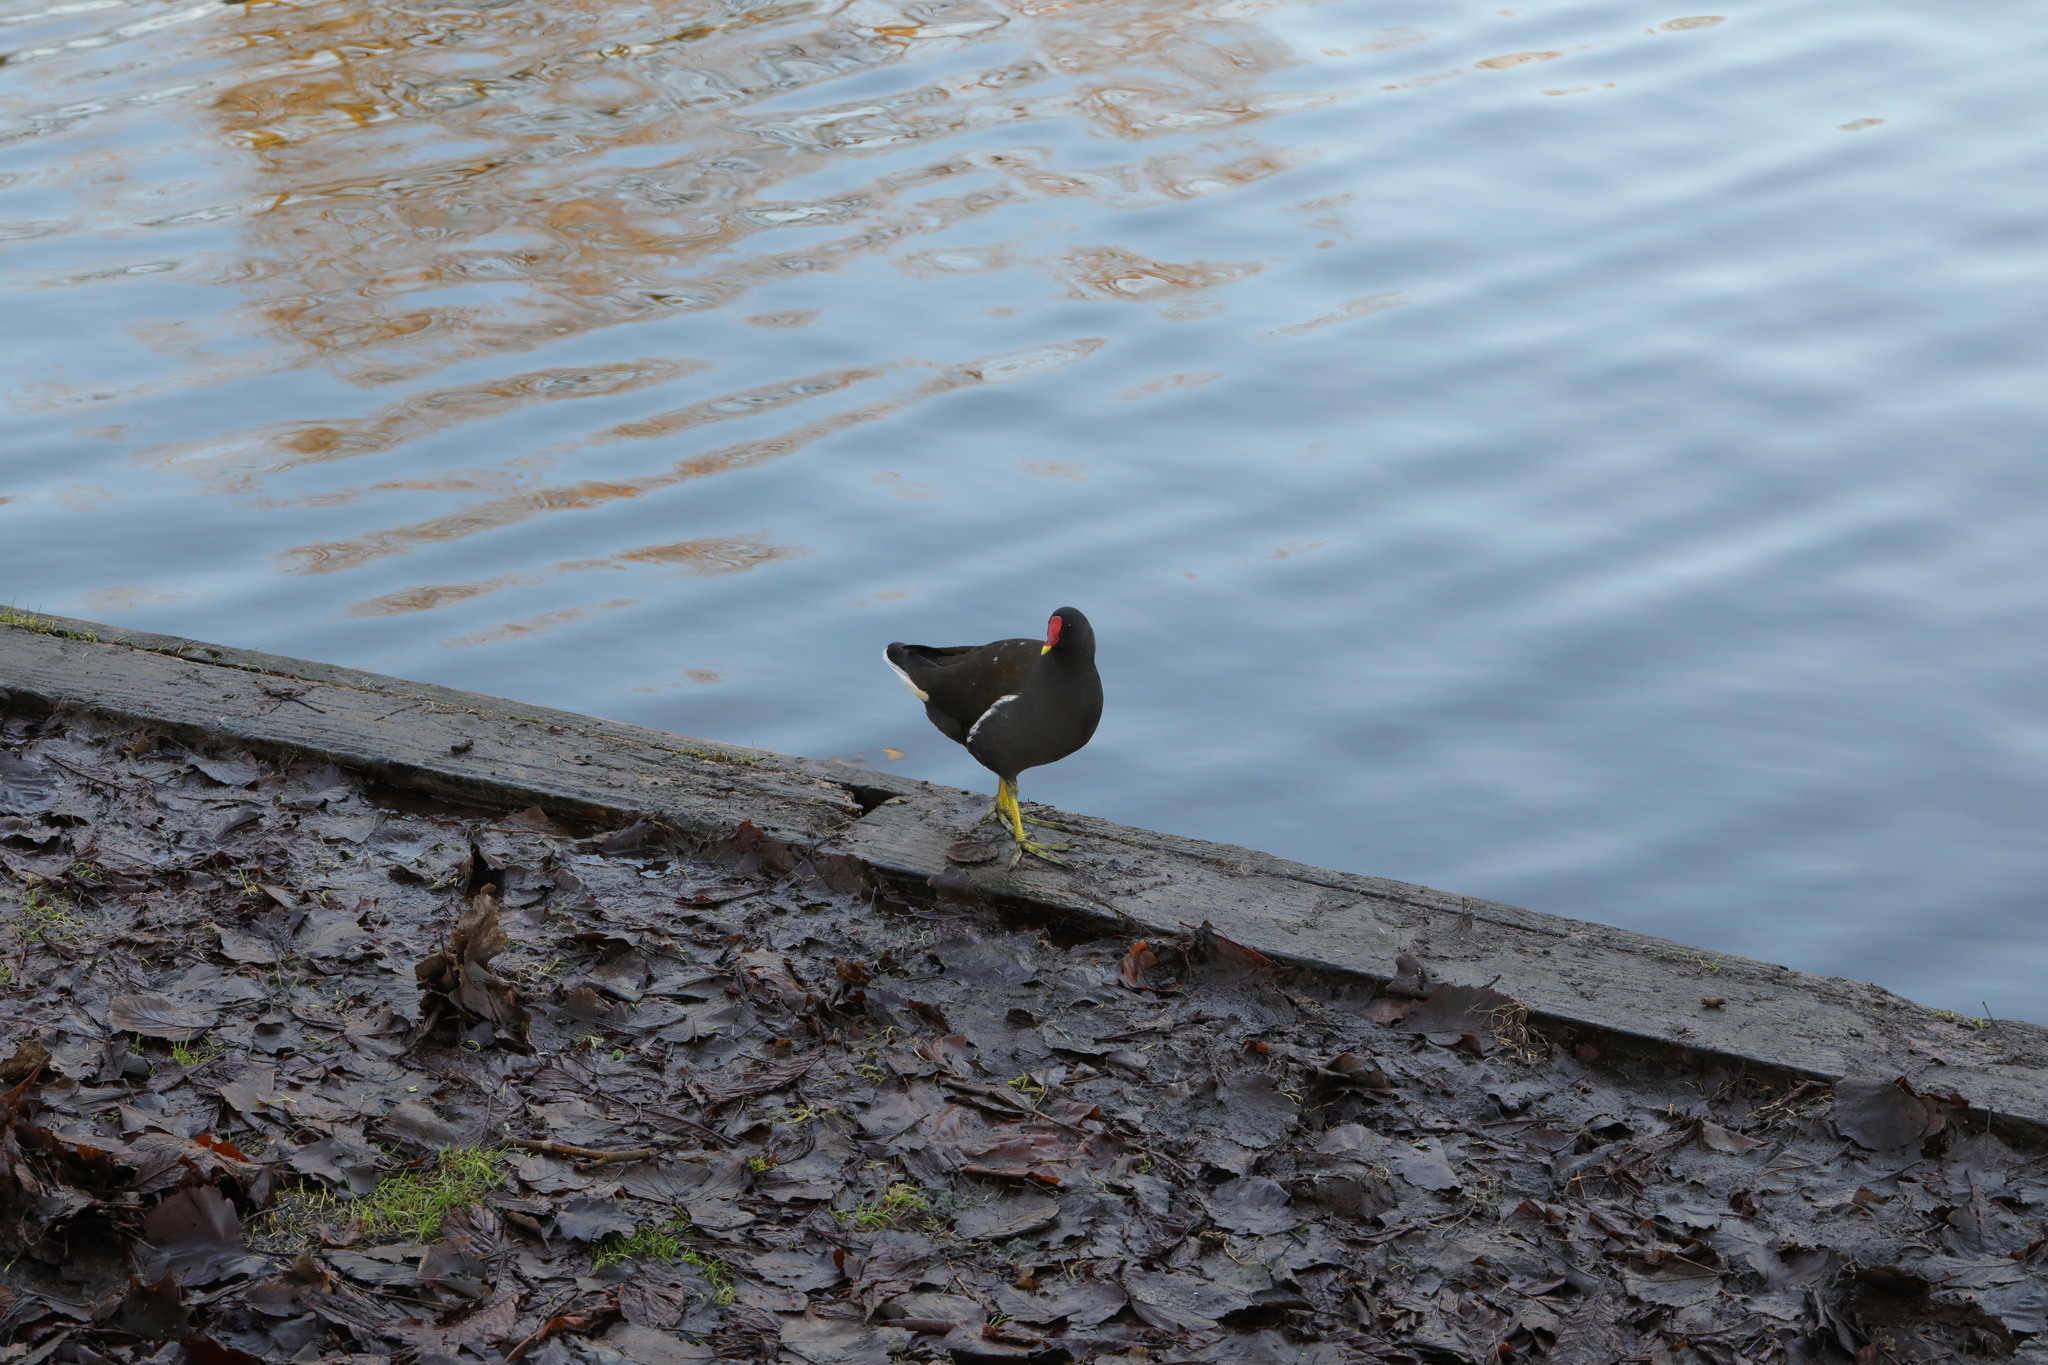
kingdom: Animalia
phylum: Chordata
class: Aves
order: Gruiformes
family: Rallidae
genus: Gallinula
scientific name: Gallinula chloropus
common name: Common moorhen
